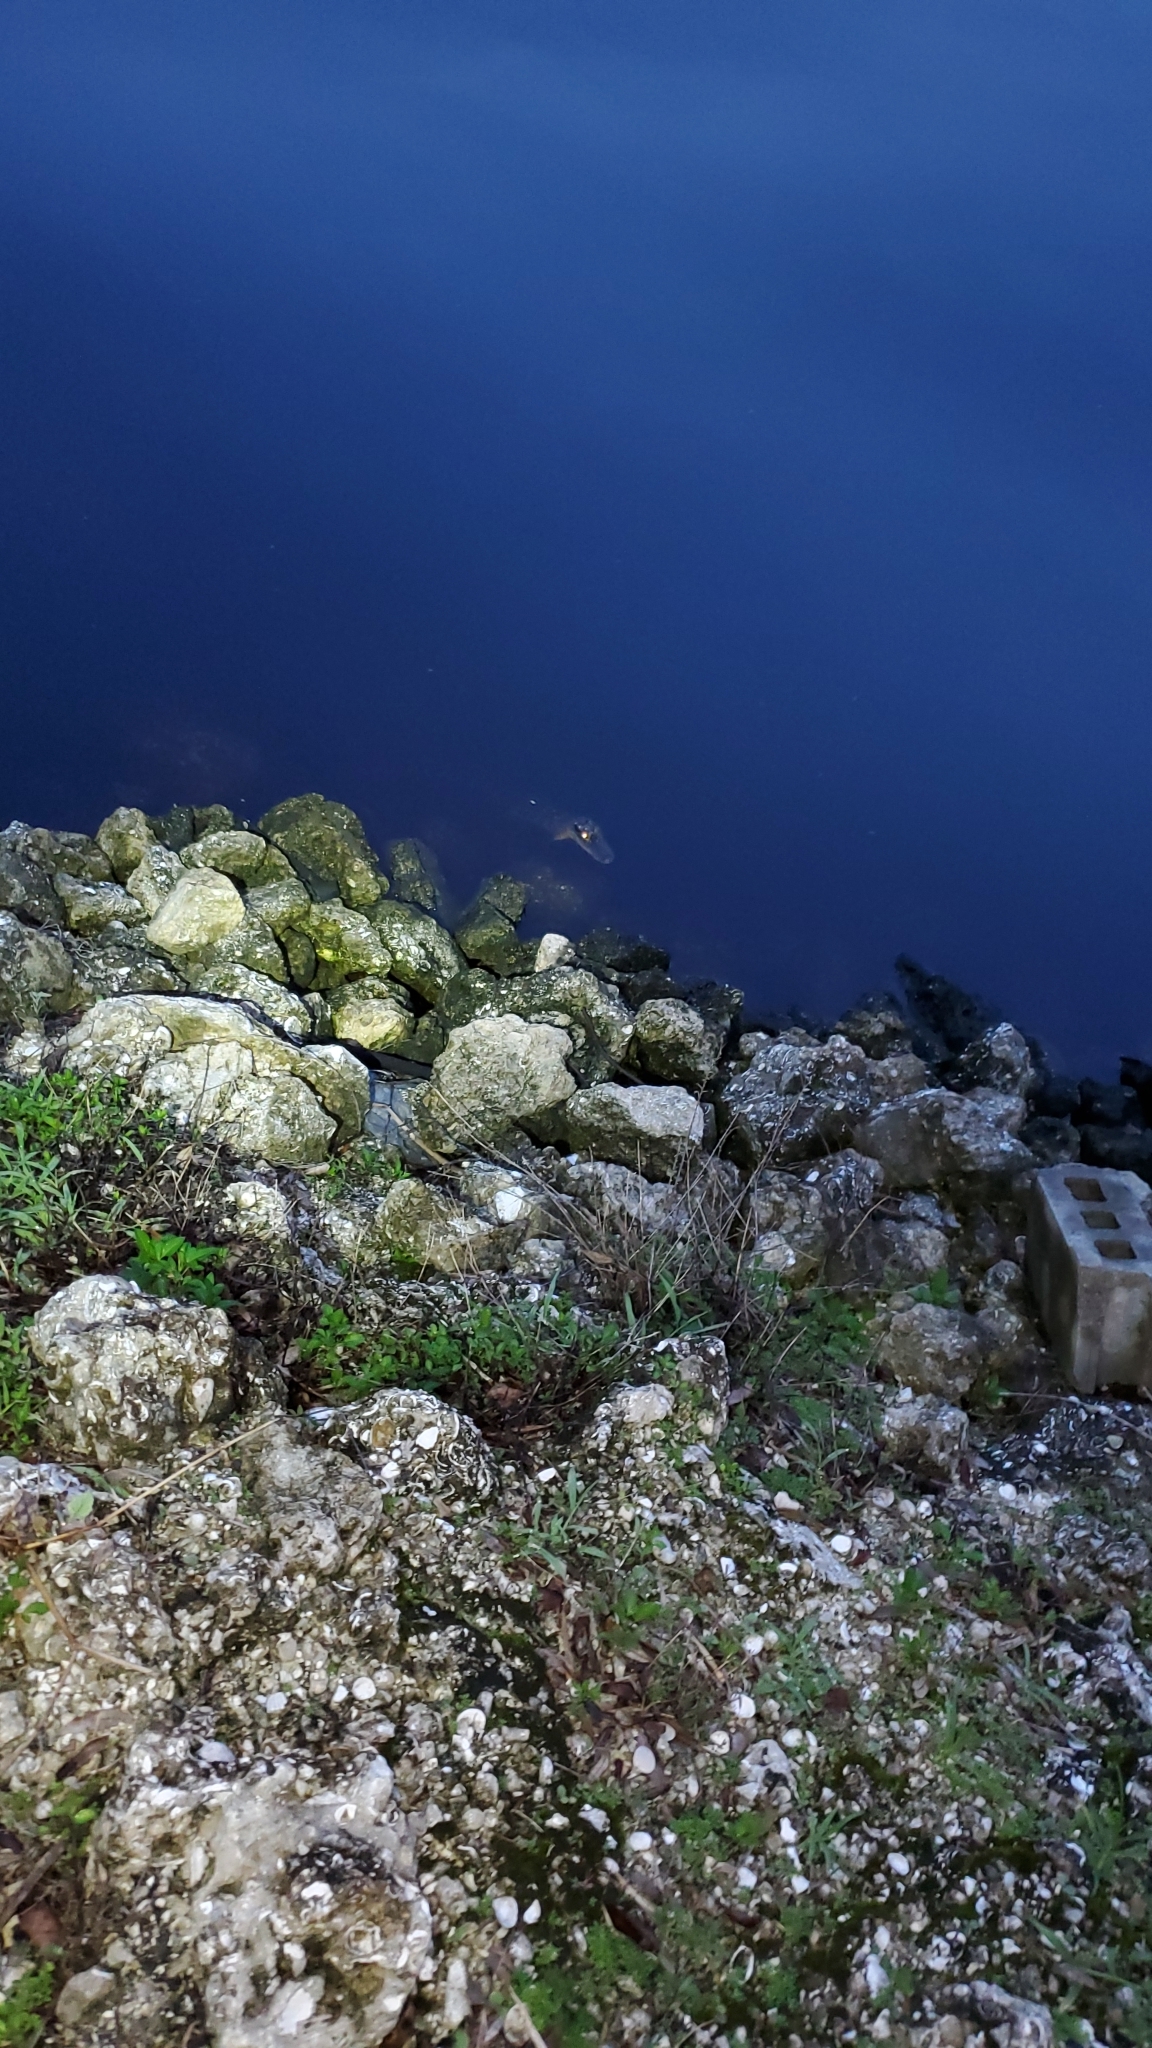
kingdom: Animalia
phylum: Chordata
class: Crocodylia
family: Alligatoridae
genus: Alligator
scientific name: Alligator mississippiensis
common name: American alligator
